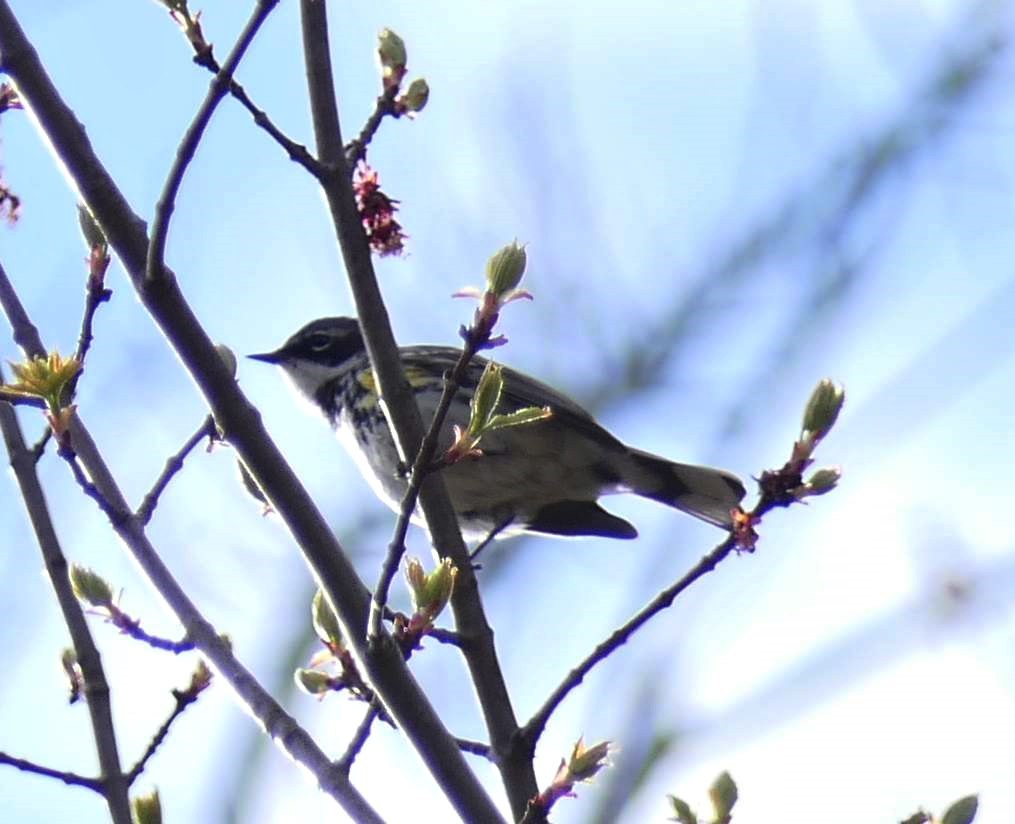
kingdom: Animalia
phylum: Chordata
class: Aves
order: Passeriformes
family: Parulidae
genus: Setophaga
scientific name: Setophaga coronata
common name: Myrtle warbler
